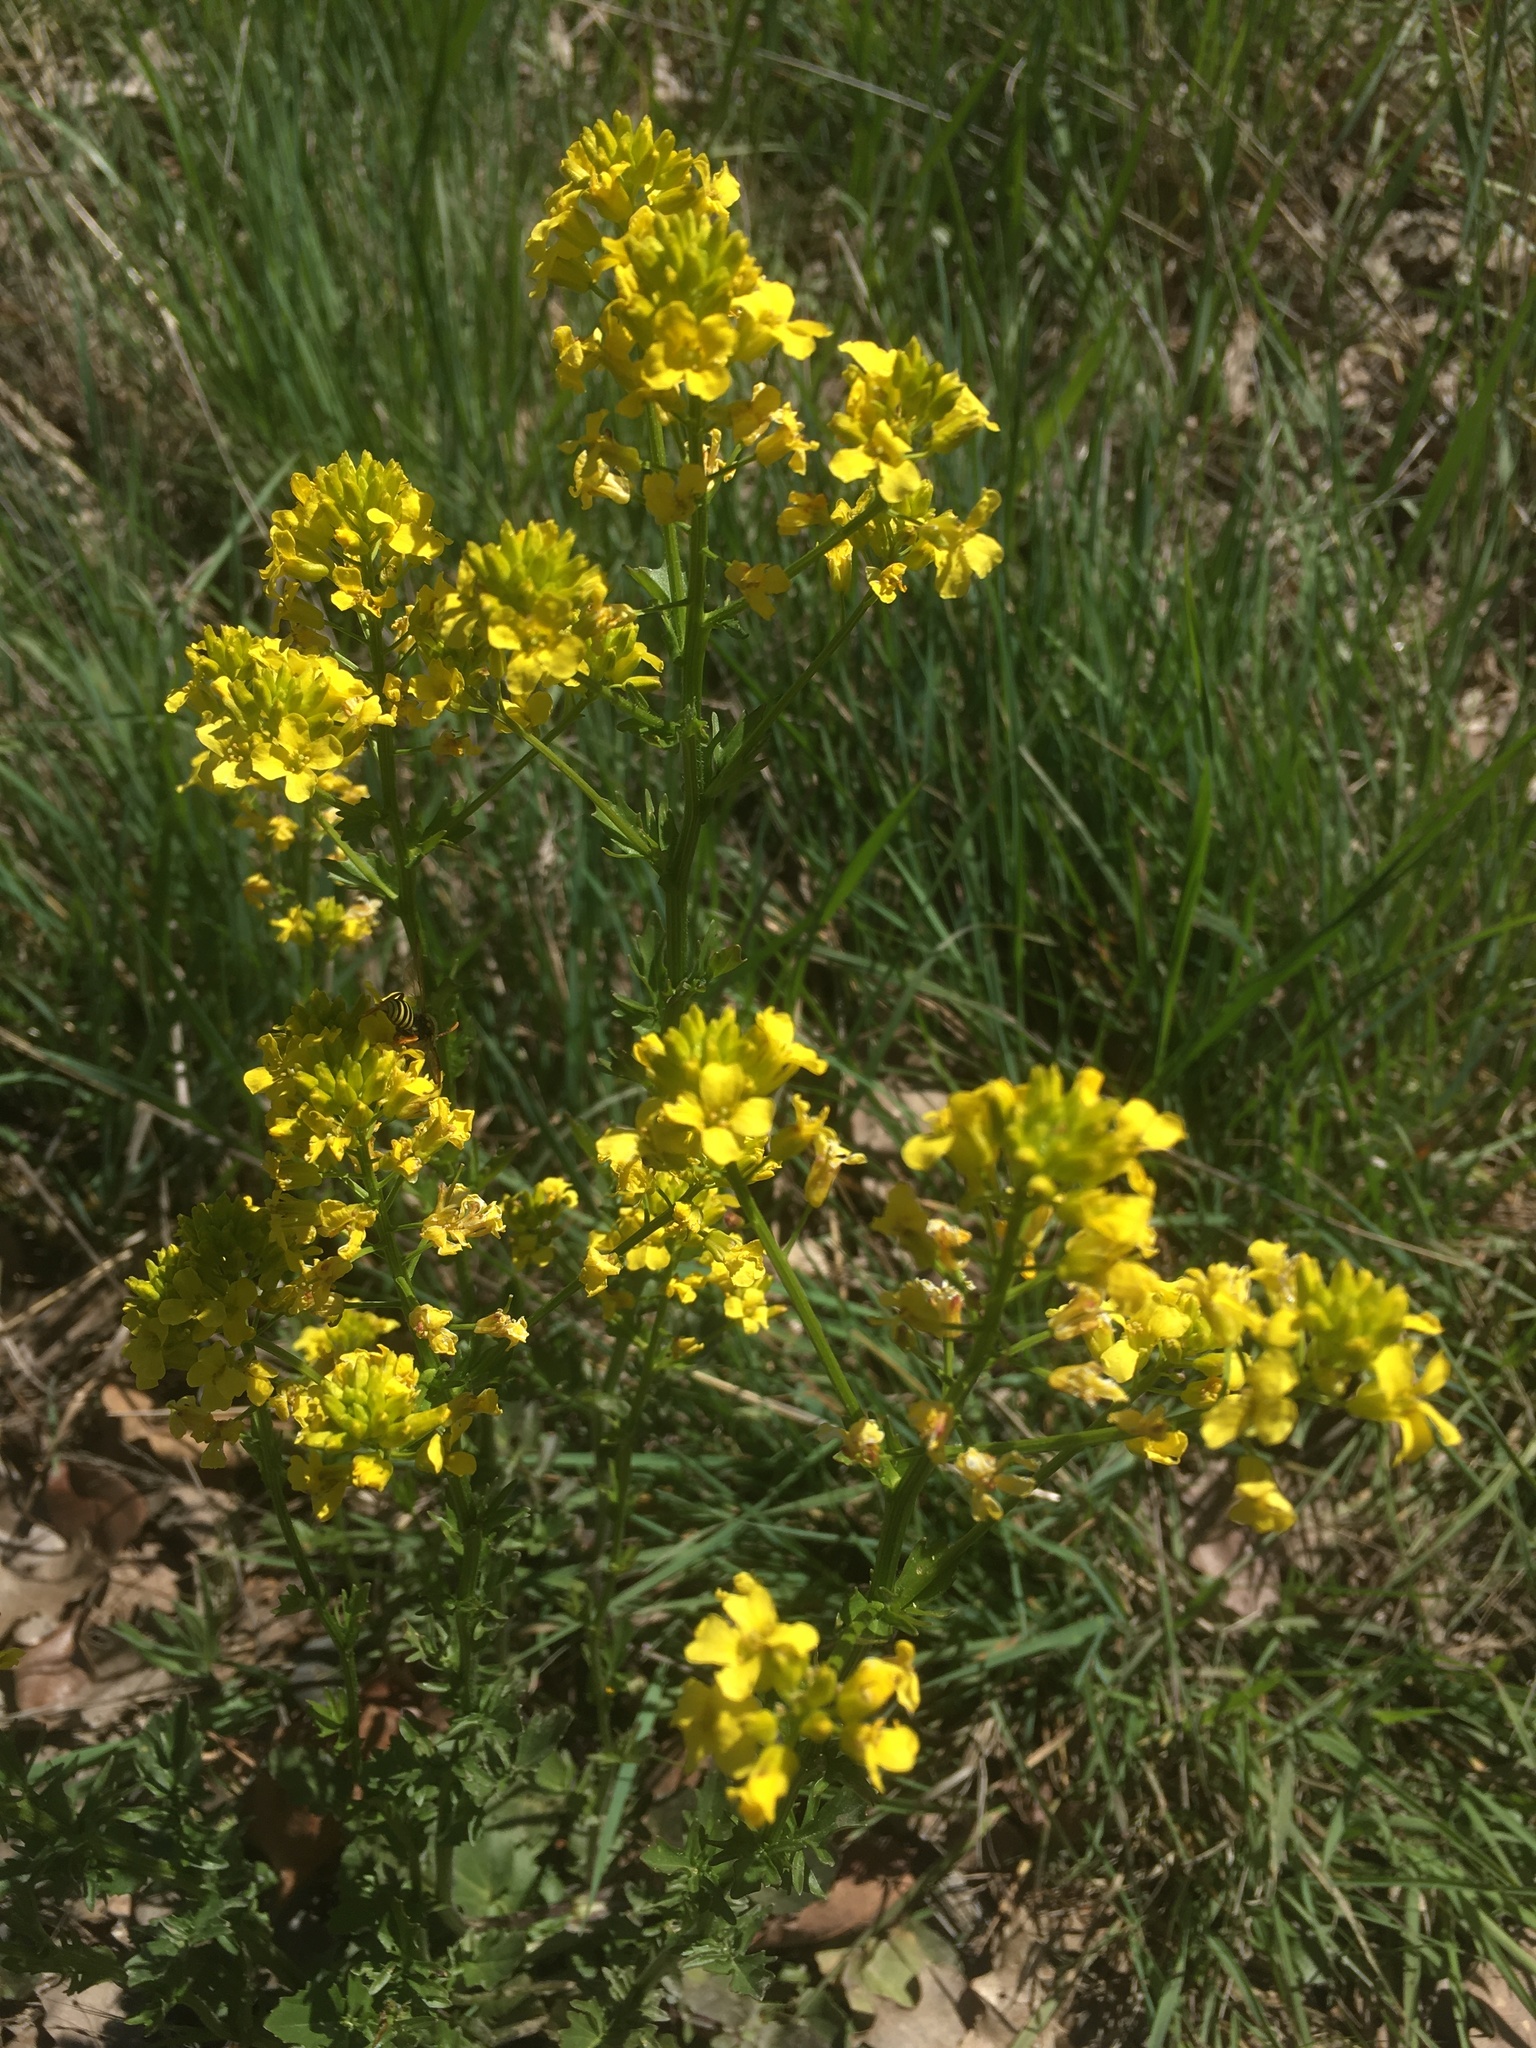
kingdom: Plantae
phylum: Tracheophyta
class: Magnoliopsida
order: Brassicales
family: Brassicaceae
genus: Barbarea
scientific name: Barbarea vulgaris
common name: Cressy-greens
